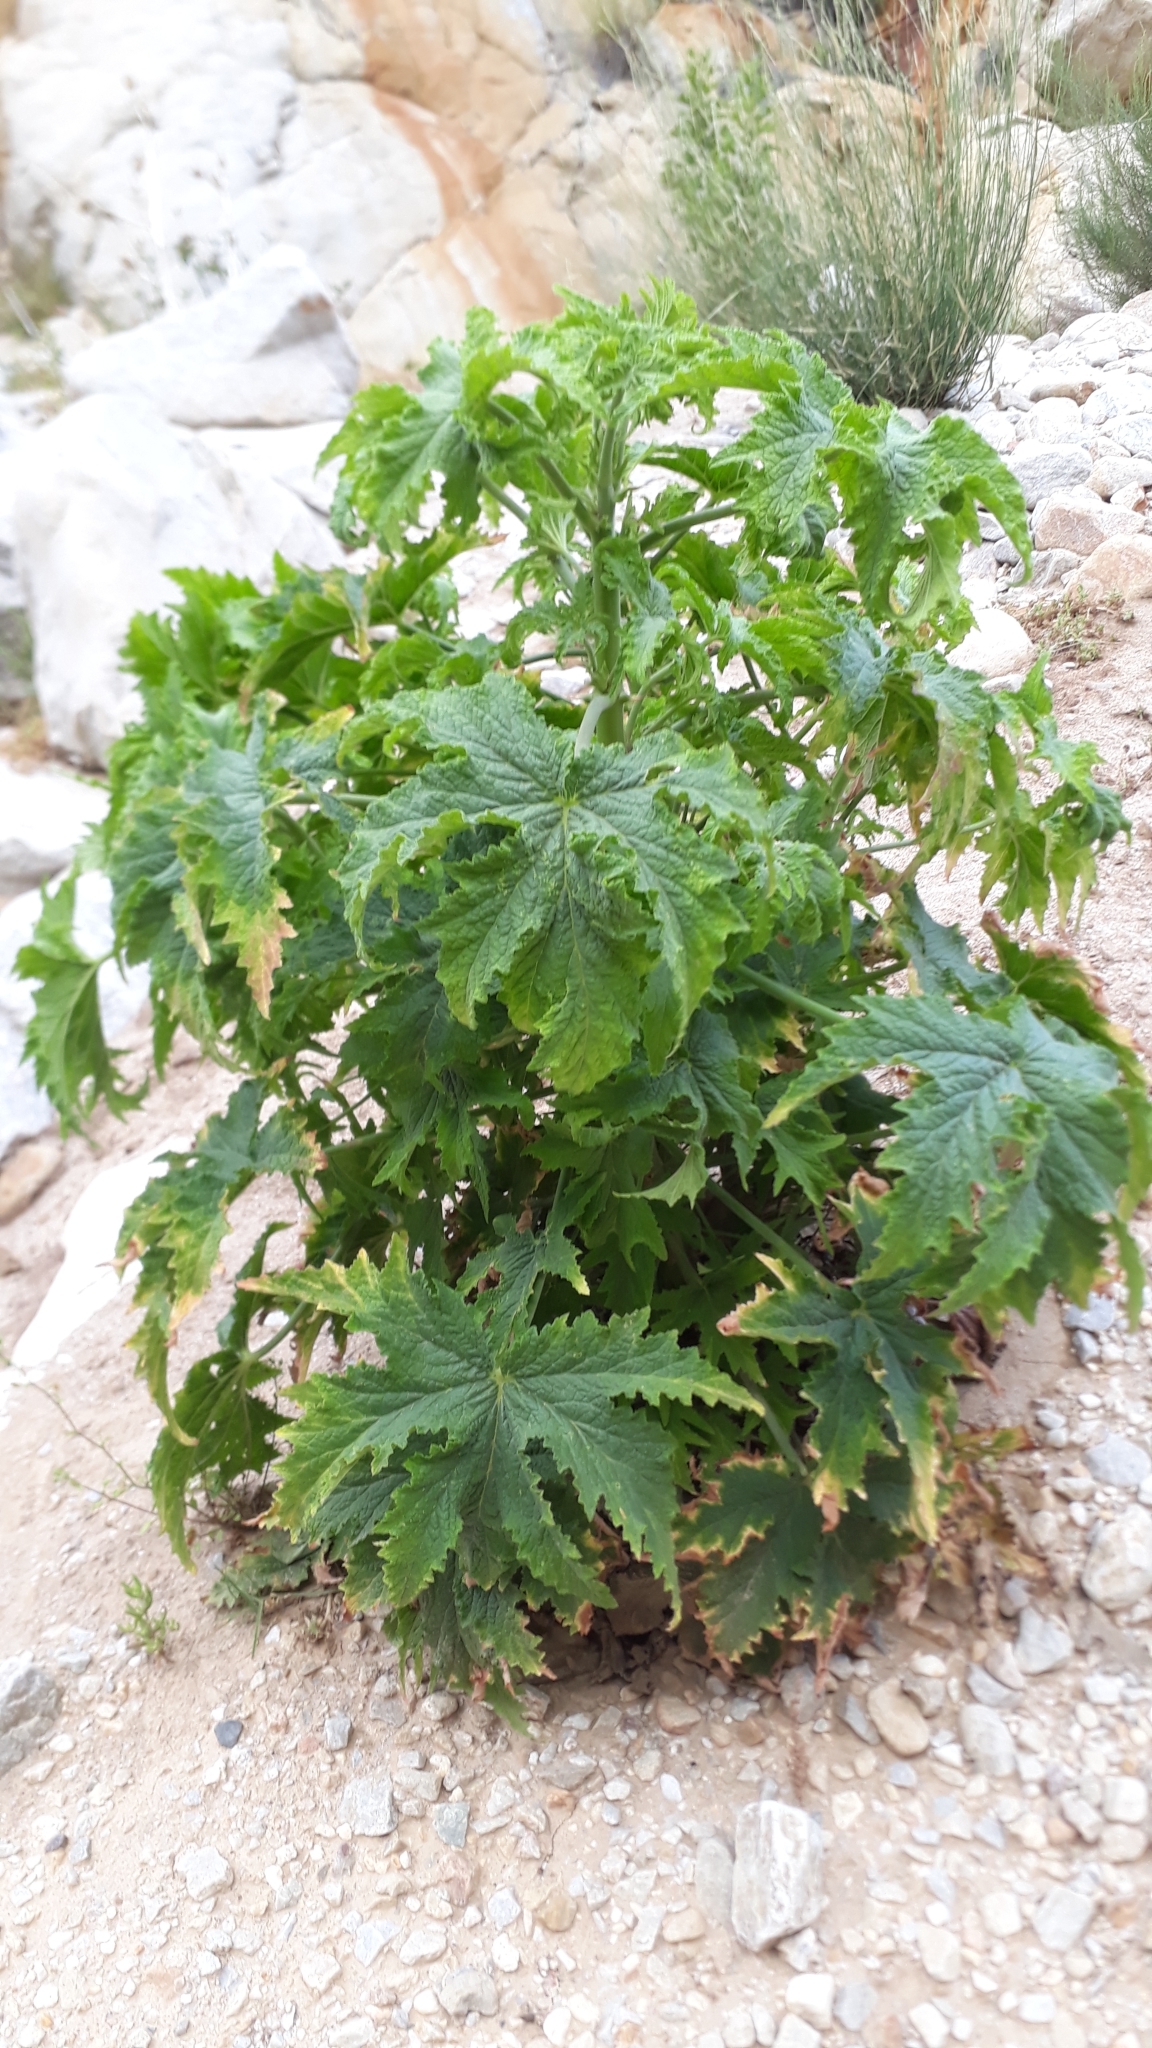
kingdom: Plantae
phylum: Tracheophyta
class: Magnoliopsida
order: Geraniales
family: Geraniaceae
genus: Pelargonium
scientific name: Pelargonium hispidum
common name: Hispid pelargonium
